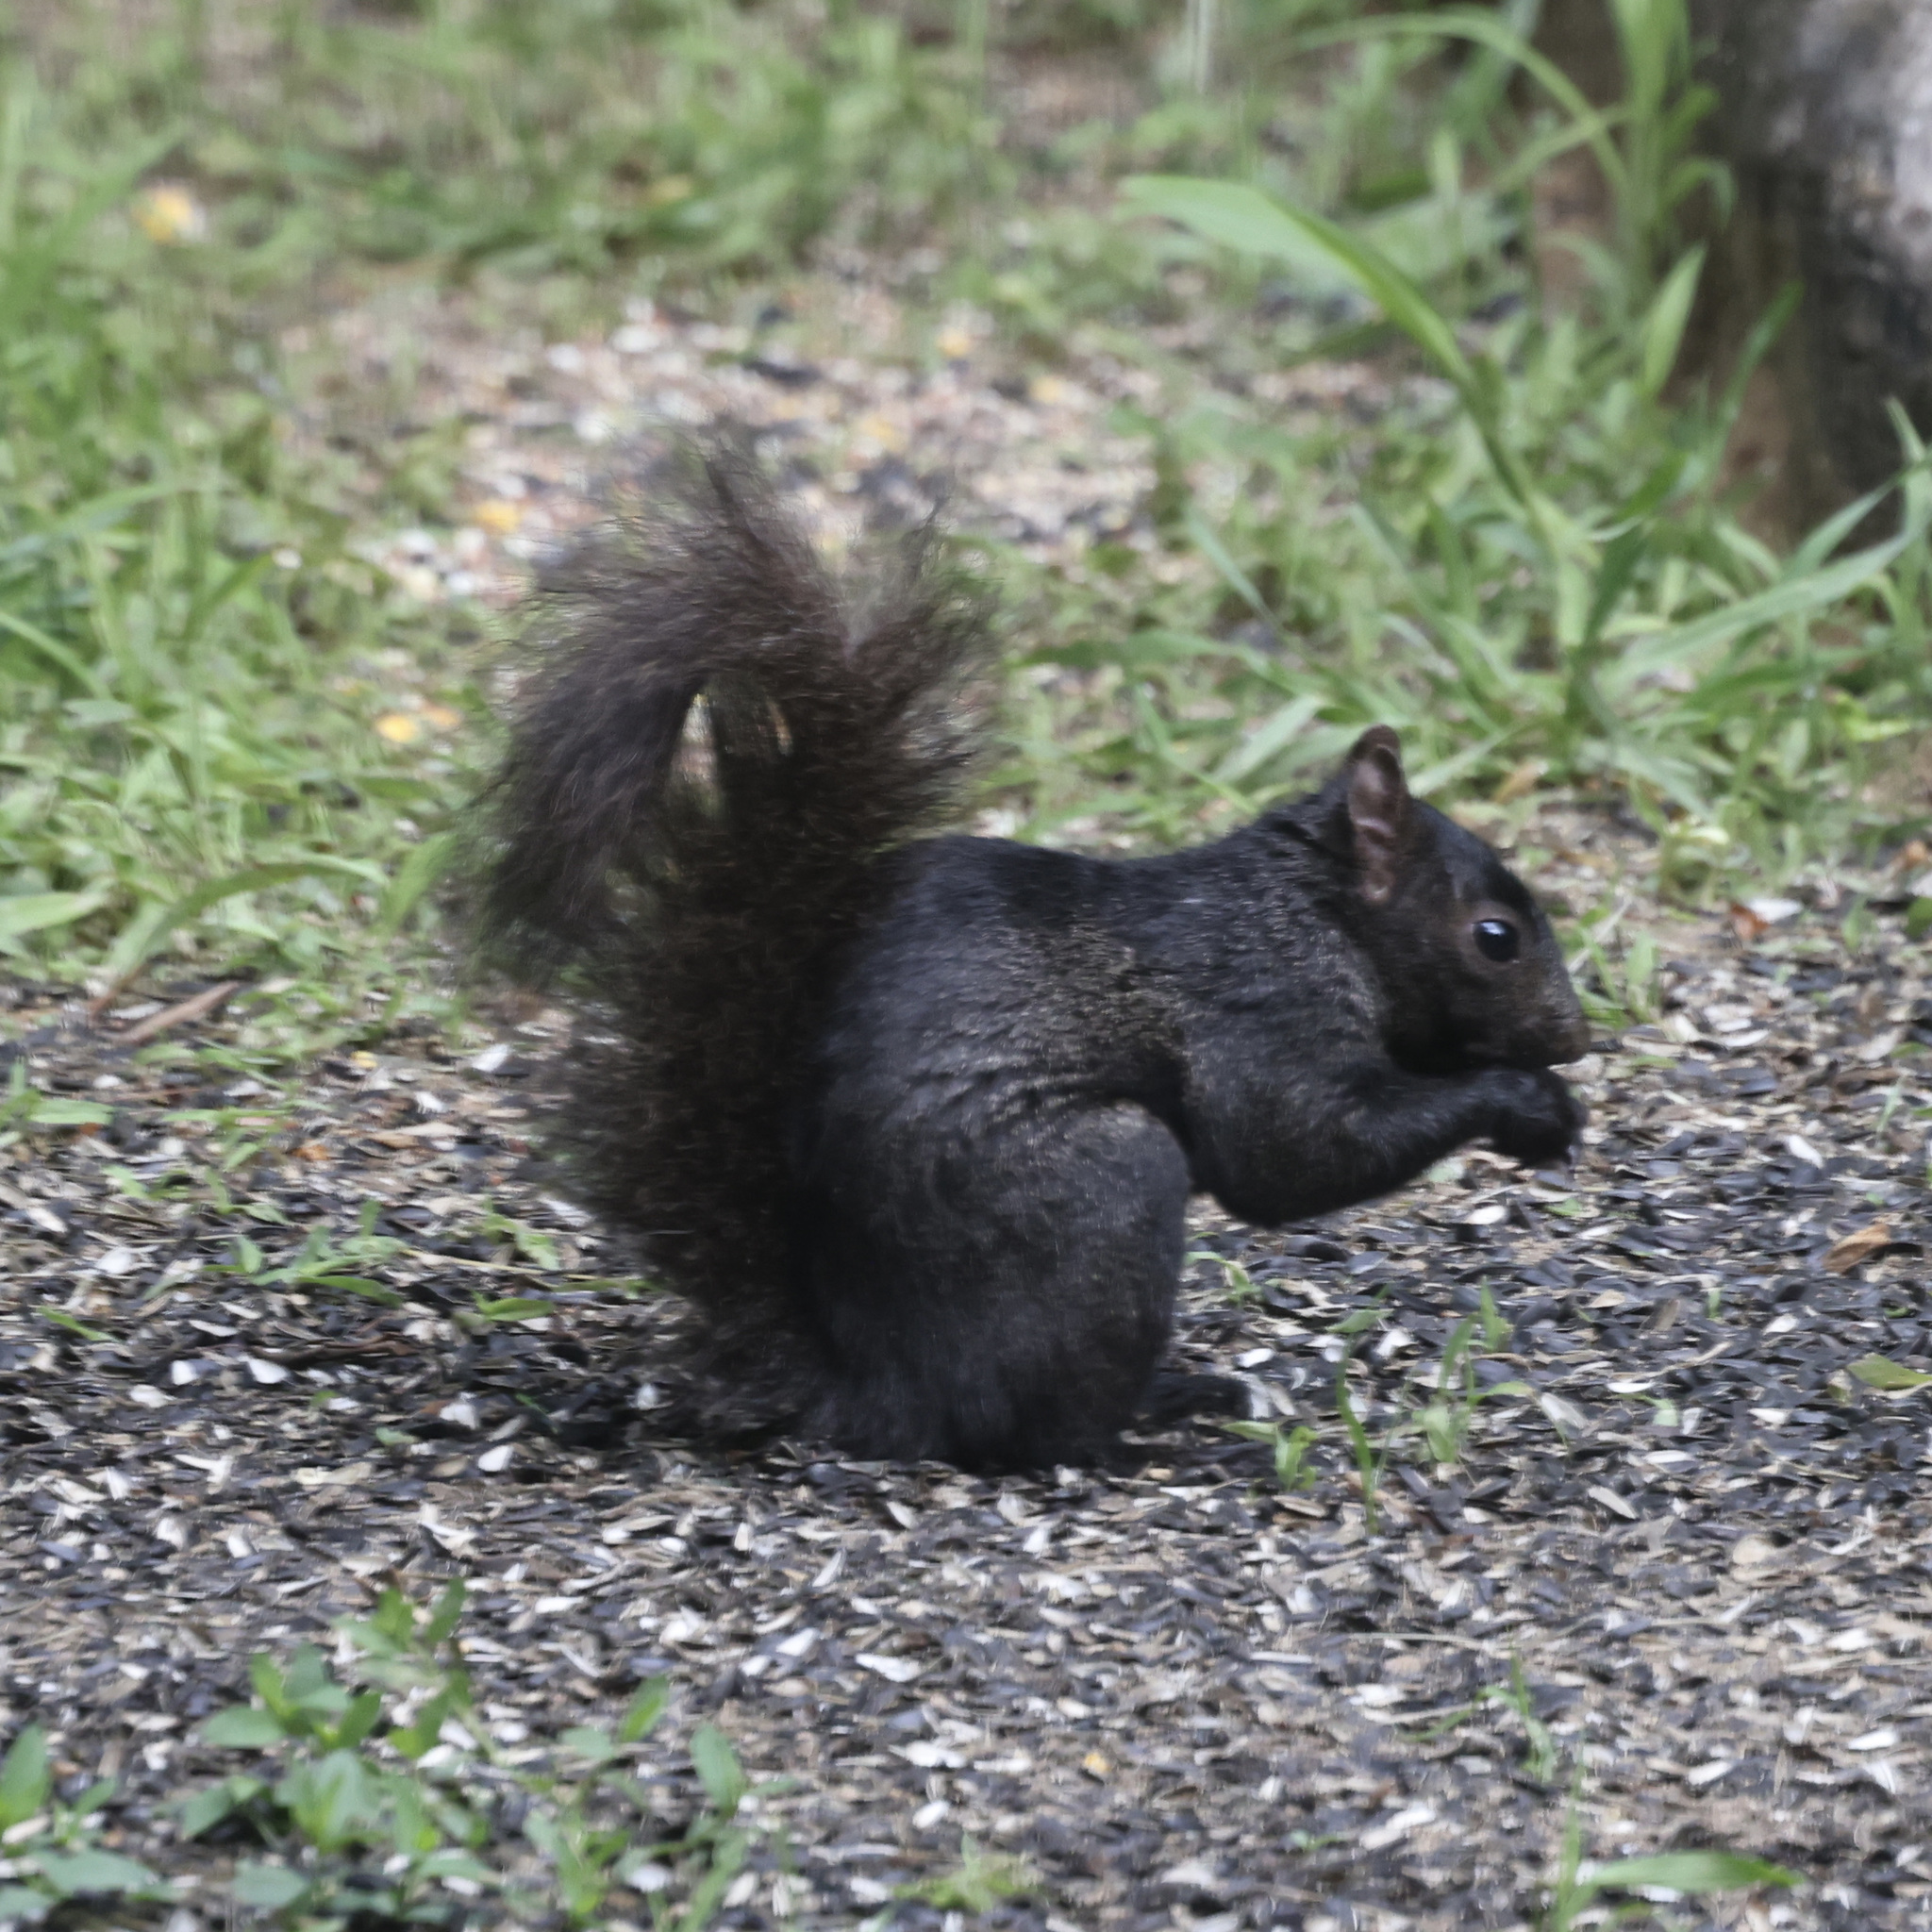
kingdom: Animalia
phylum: Chordata
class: Mammalia
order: Rodentia
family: Sciuridae
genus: Sciurus
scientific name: Sciurus carolinensis
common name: Eastern gray squirrel
